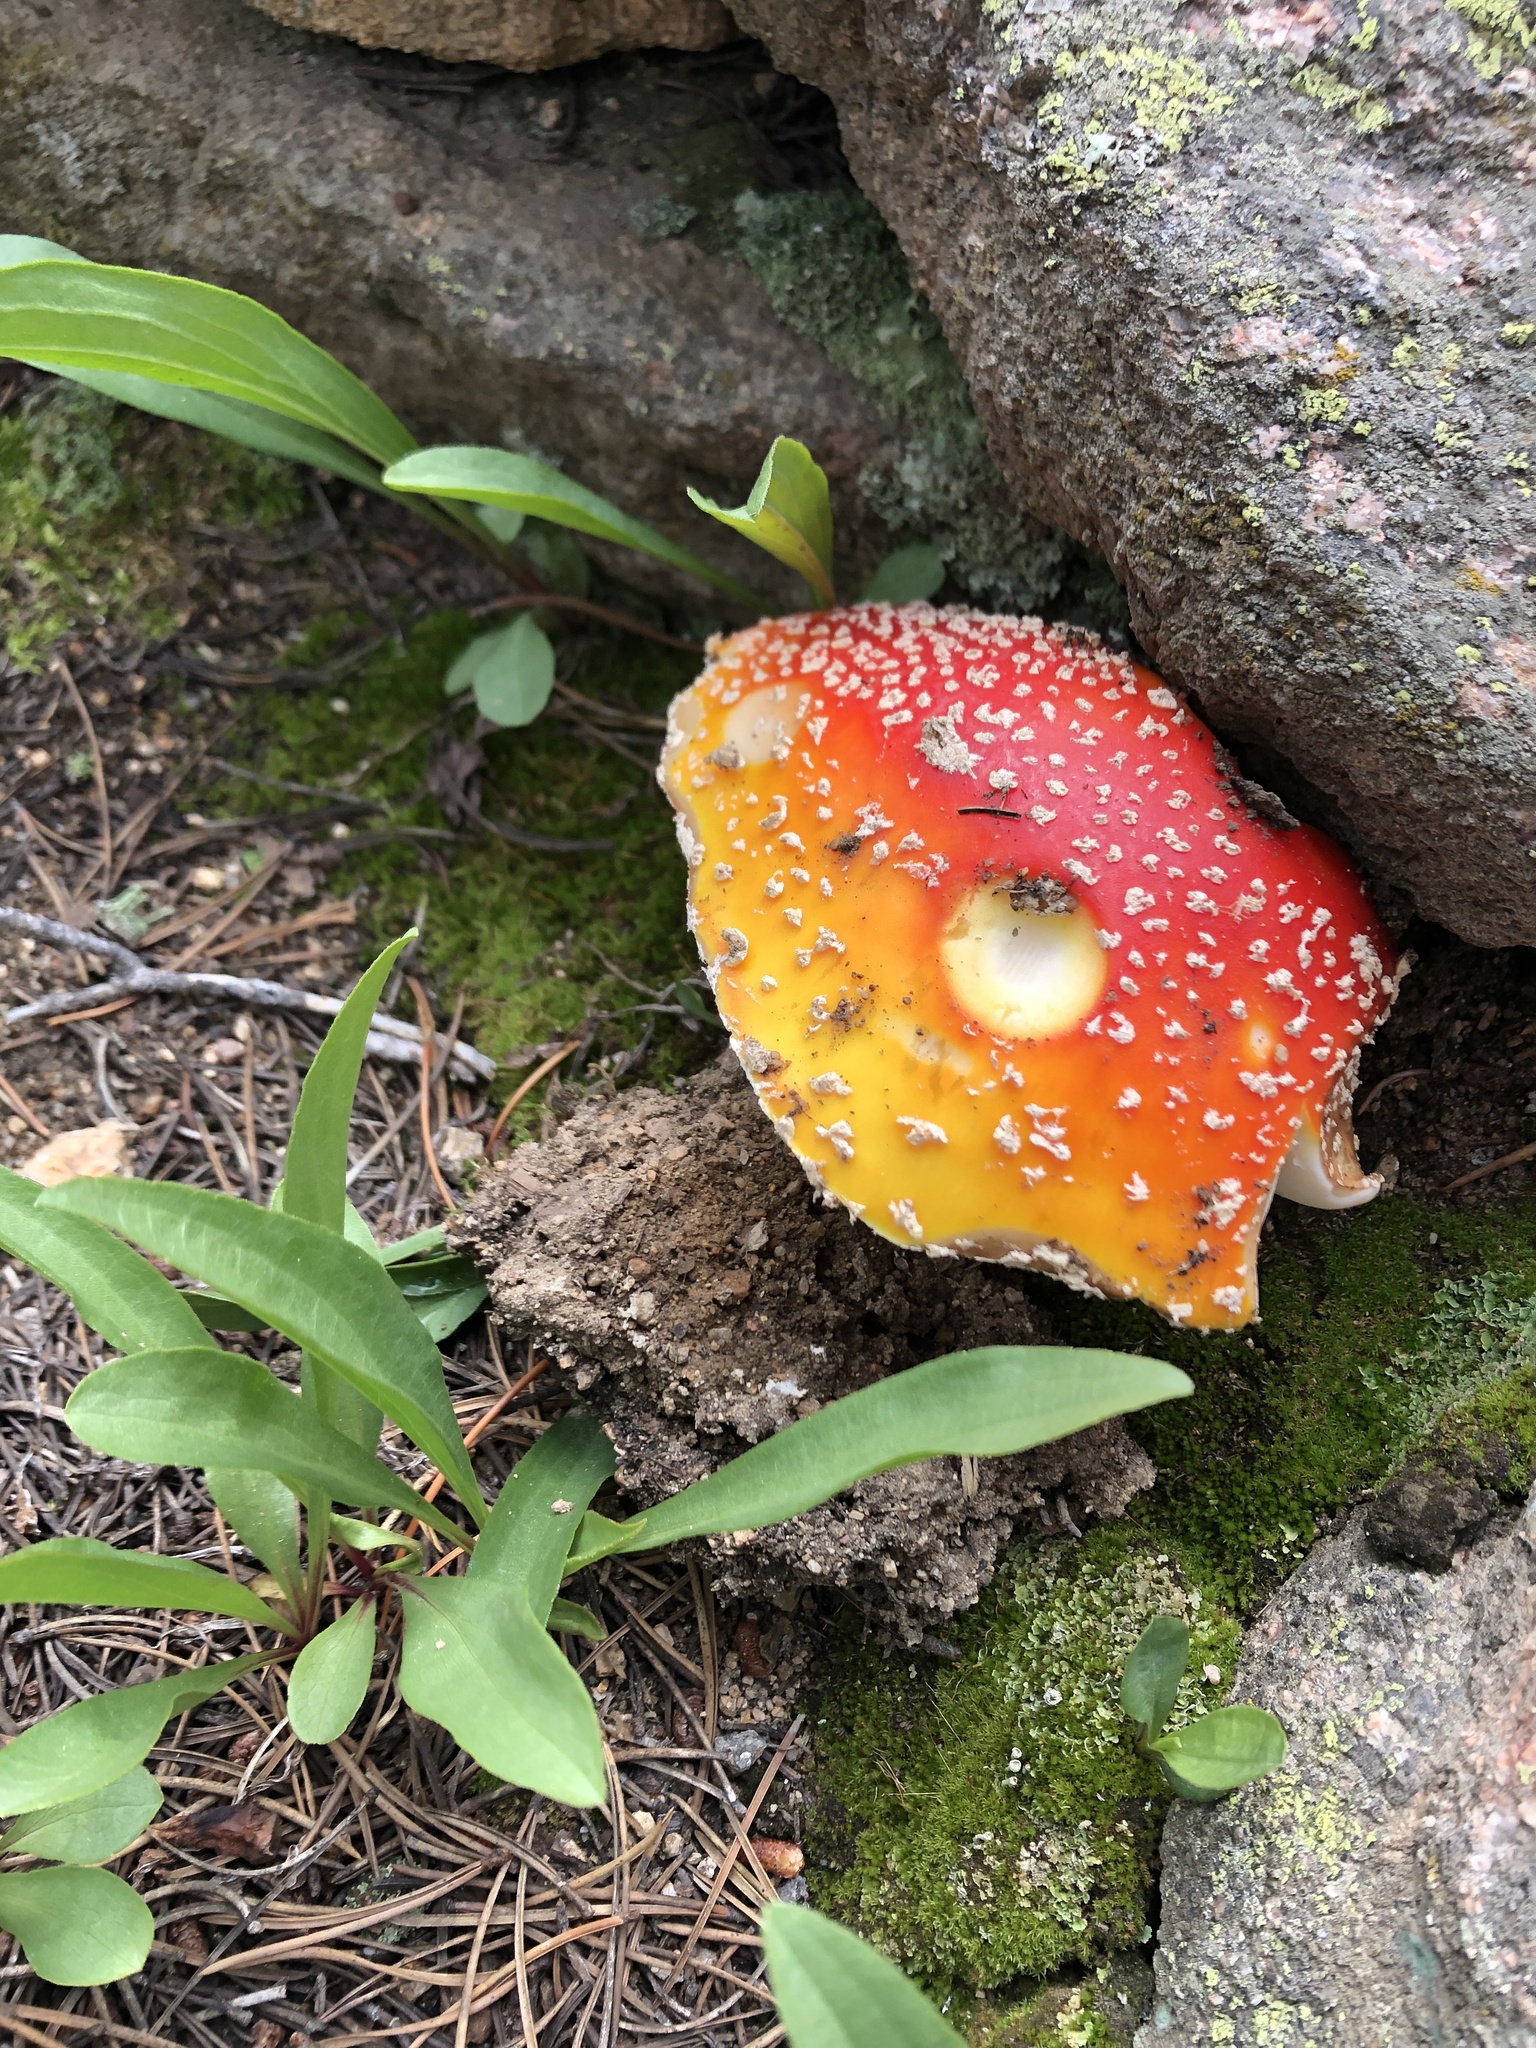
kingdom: Fungi
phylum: Basidiomycota
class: Agaricomycetes
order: Agaricales
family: Amanitaceae
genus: Amanita
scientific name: Amanita muscaria
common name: Fly agaric
